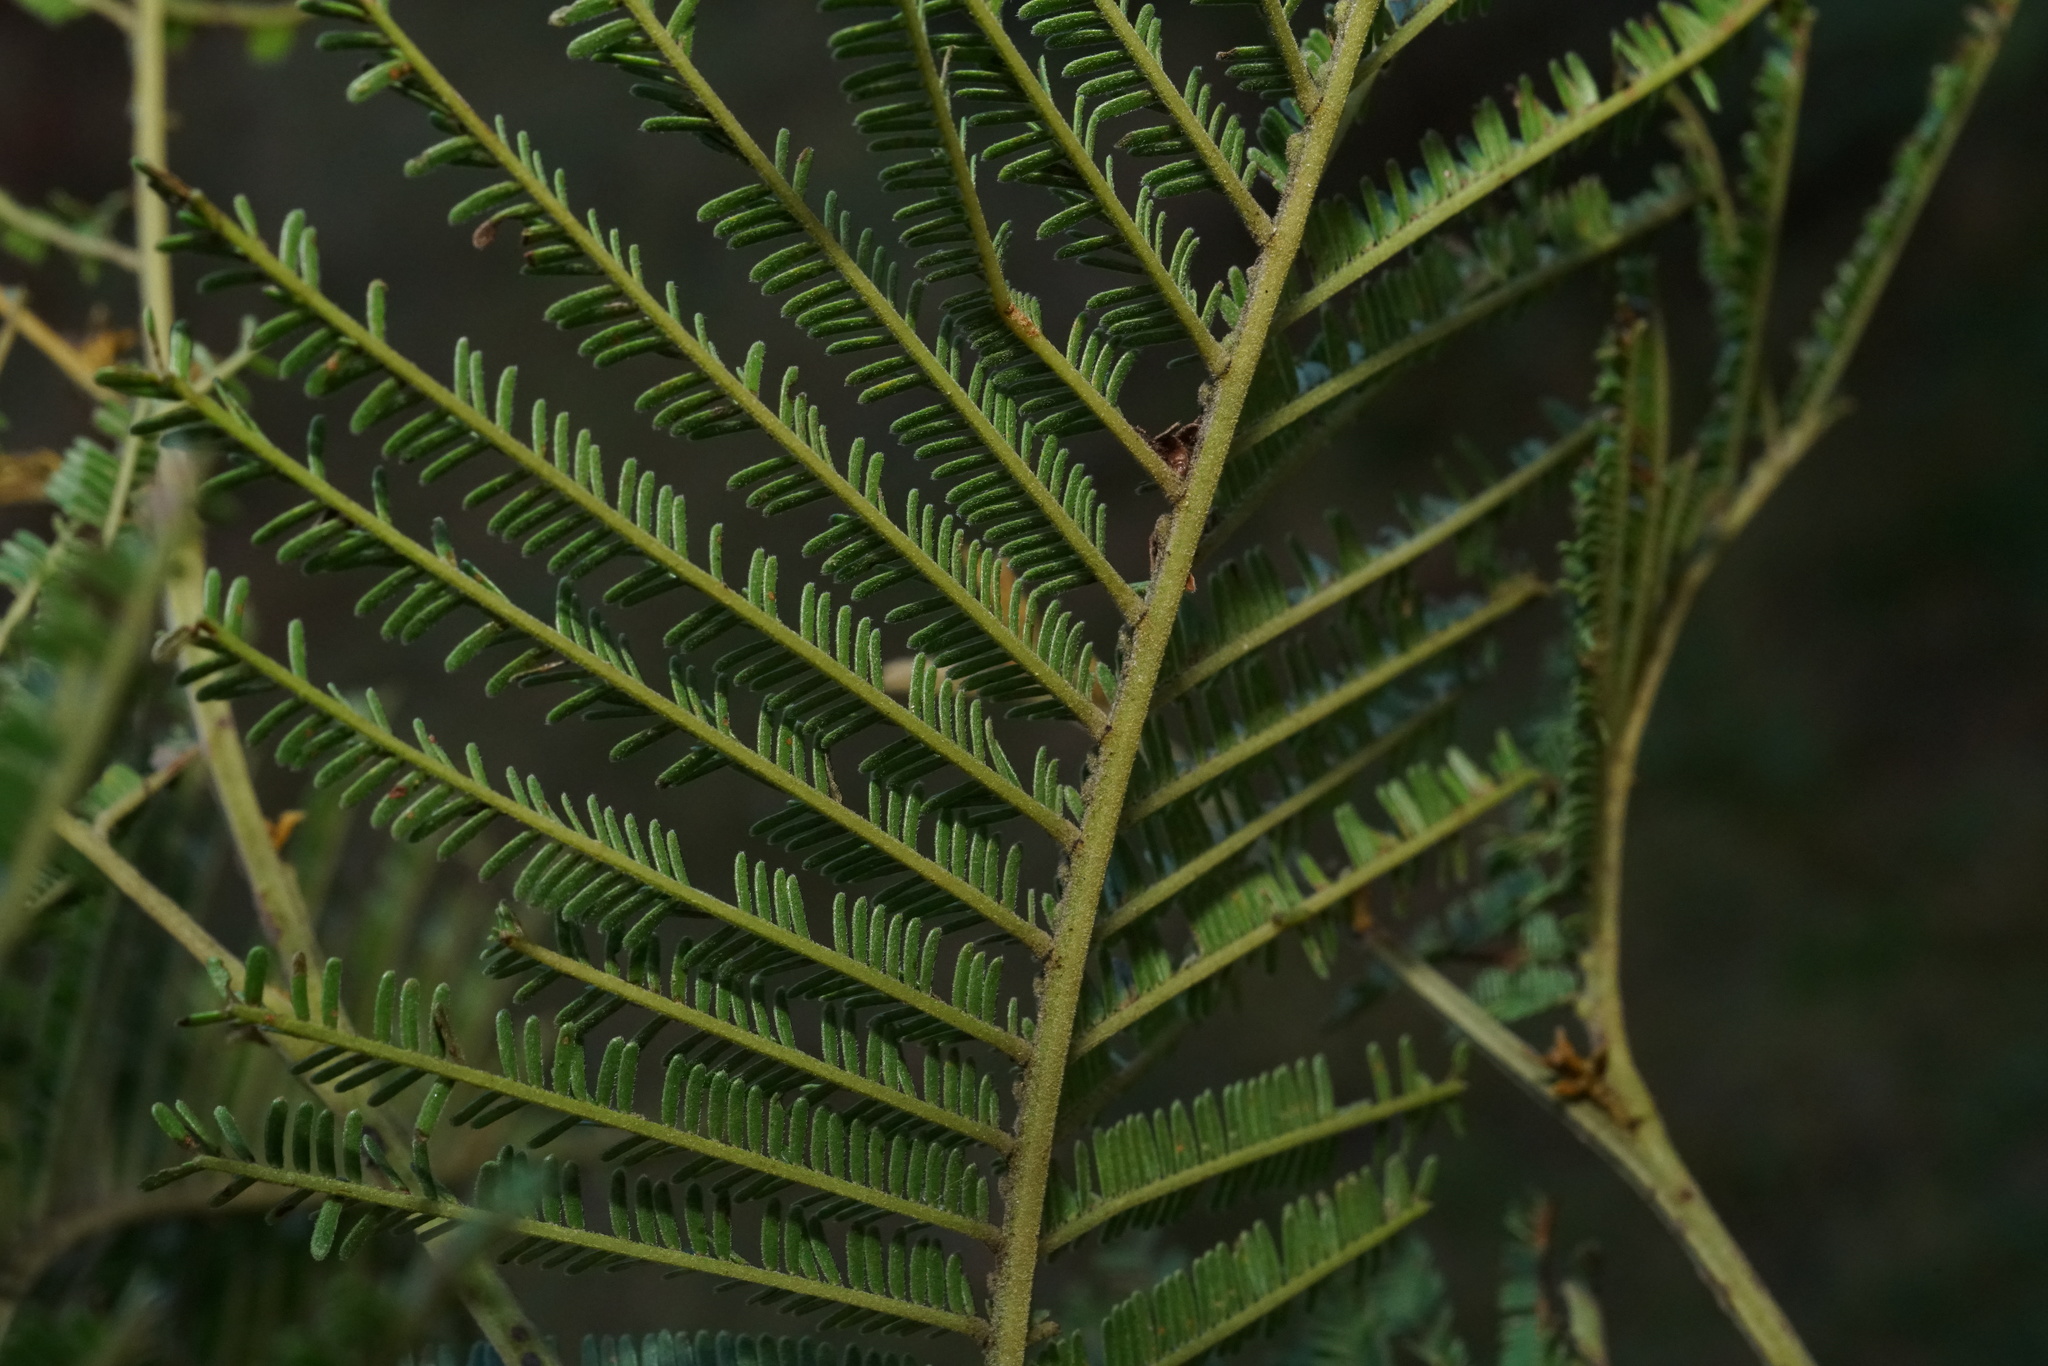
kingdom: Plantae
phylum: Tracheophyta
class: Magnoliopsida
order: Fabales
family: Fabaceae
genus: Acacia
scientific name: Acacia mearnsii
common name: Black wattle
